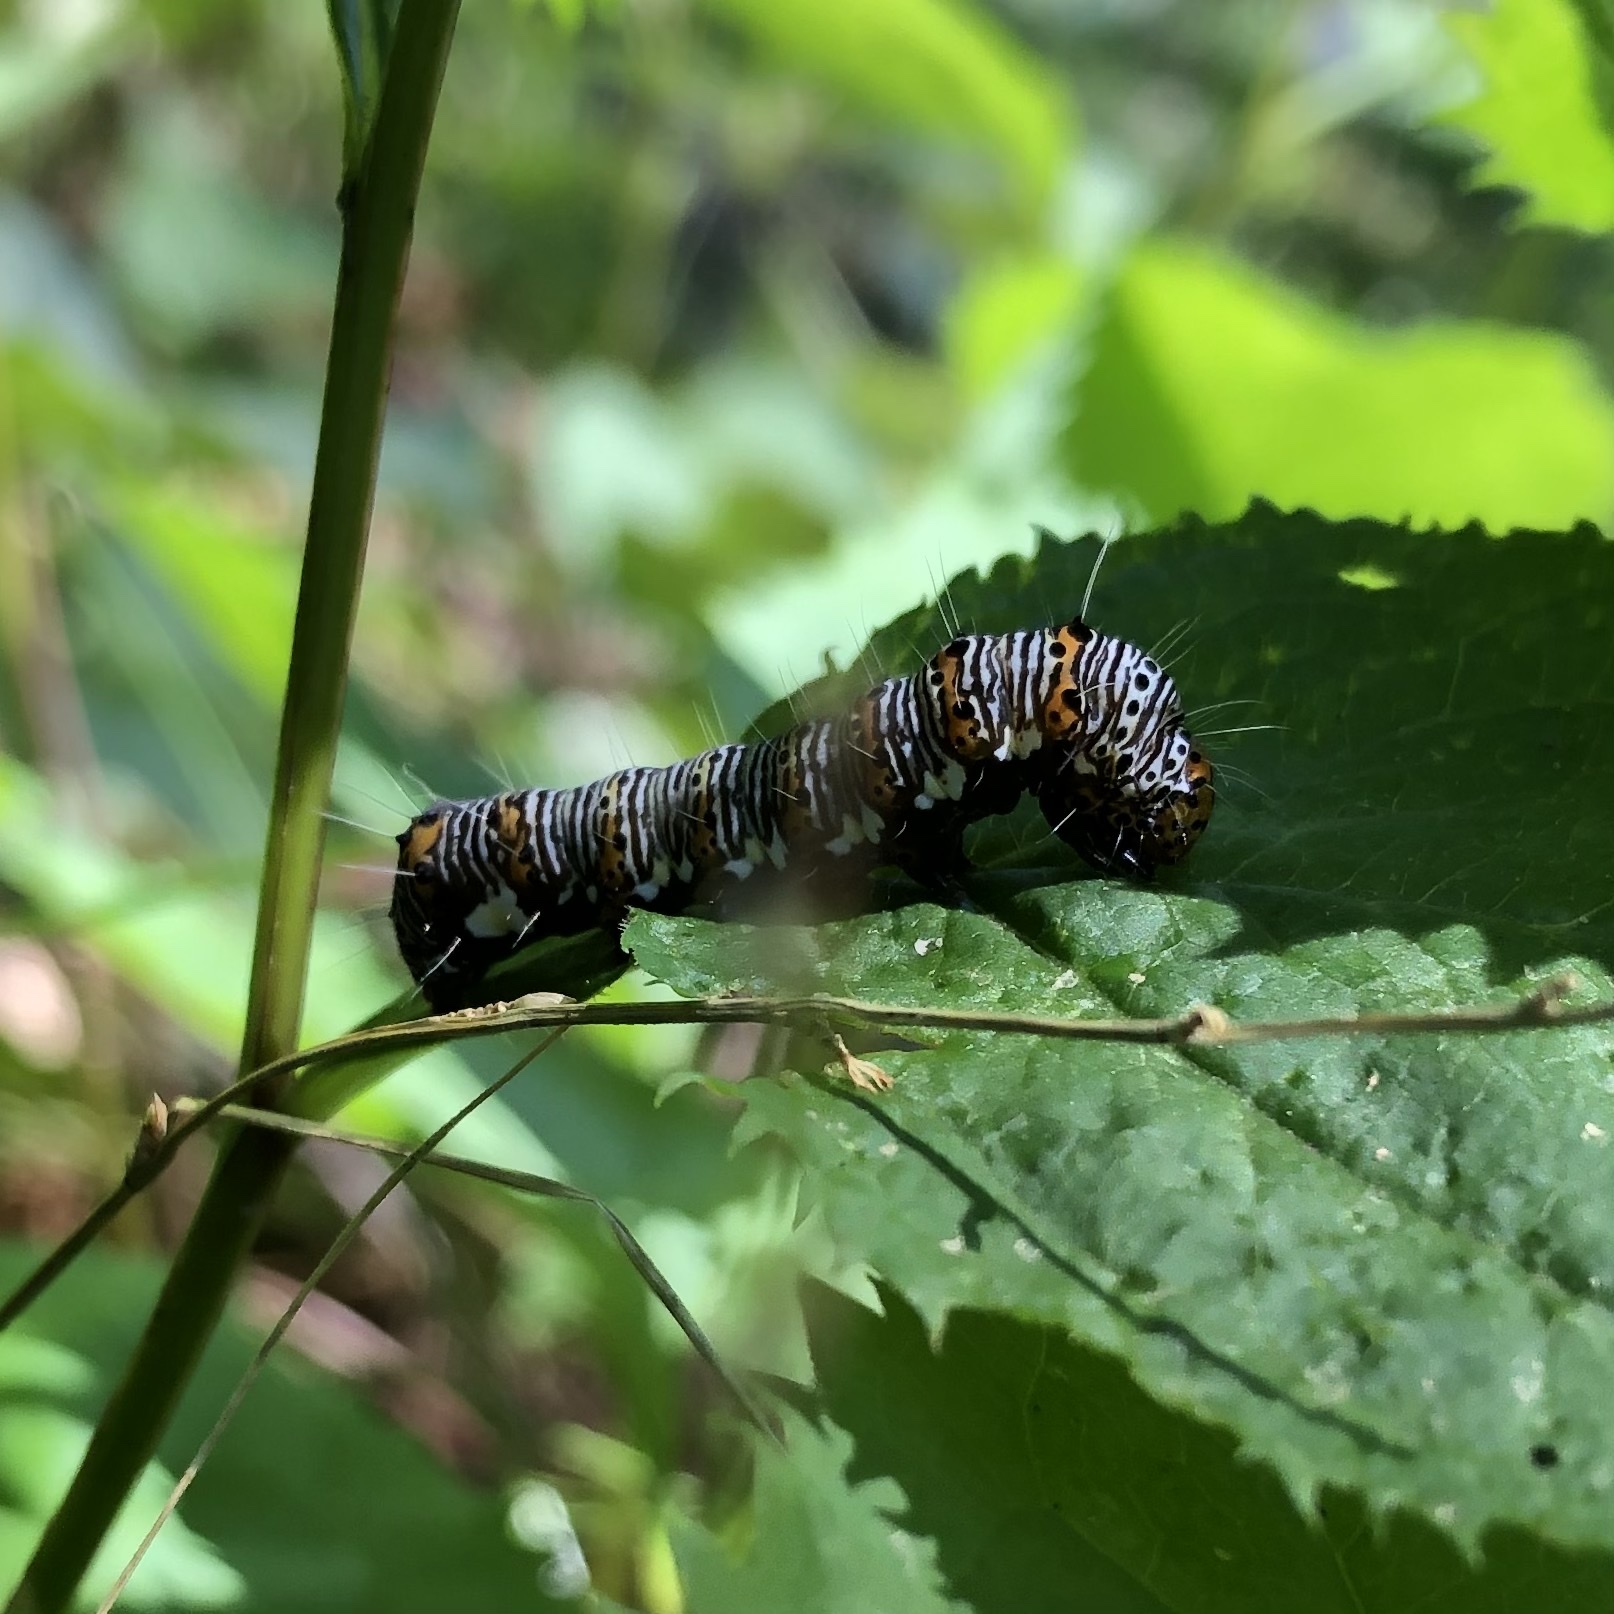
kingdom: Animalia
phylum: Arthropoda
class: Insecta
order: Lepidoptera
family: Noctuidae
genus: Alypia
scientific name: Alypia octomaculata
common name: Eight-spotted forester
